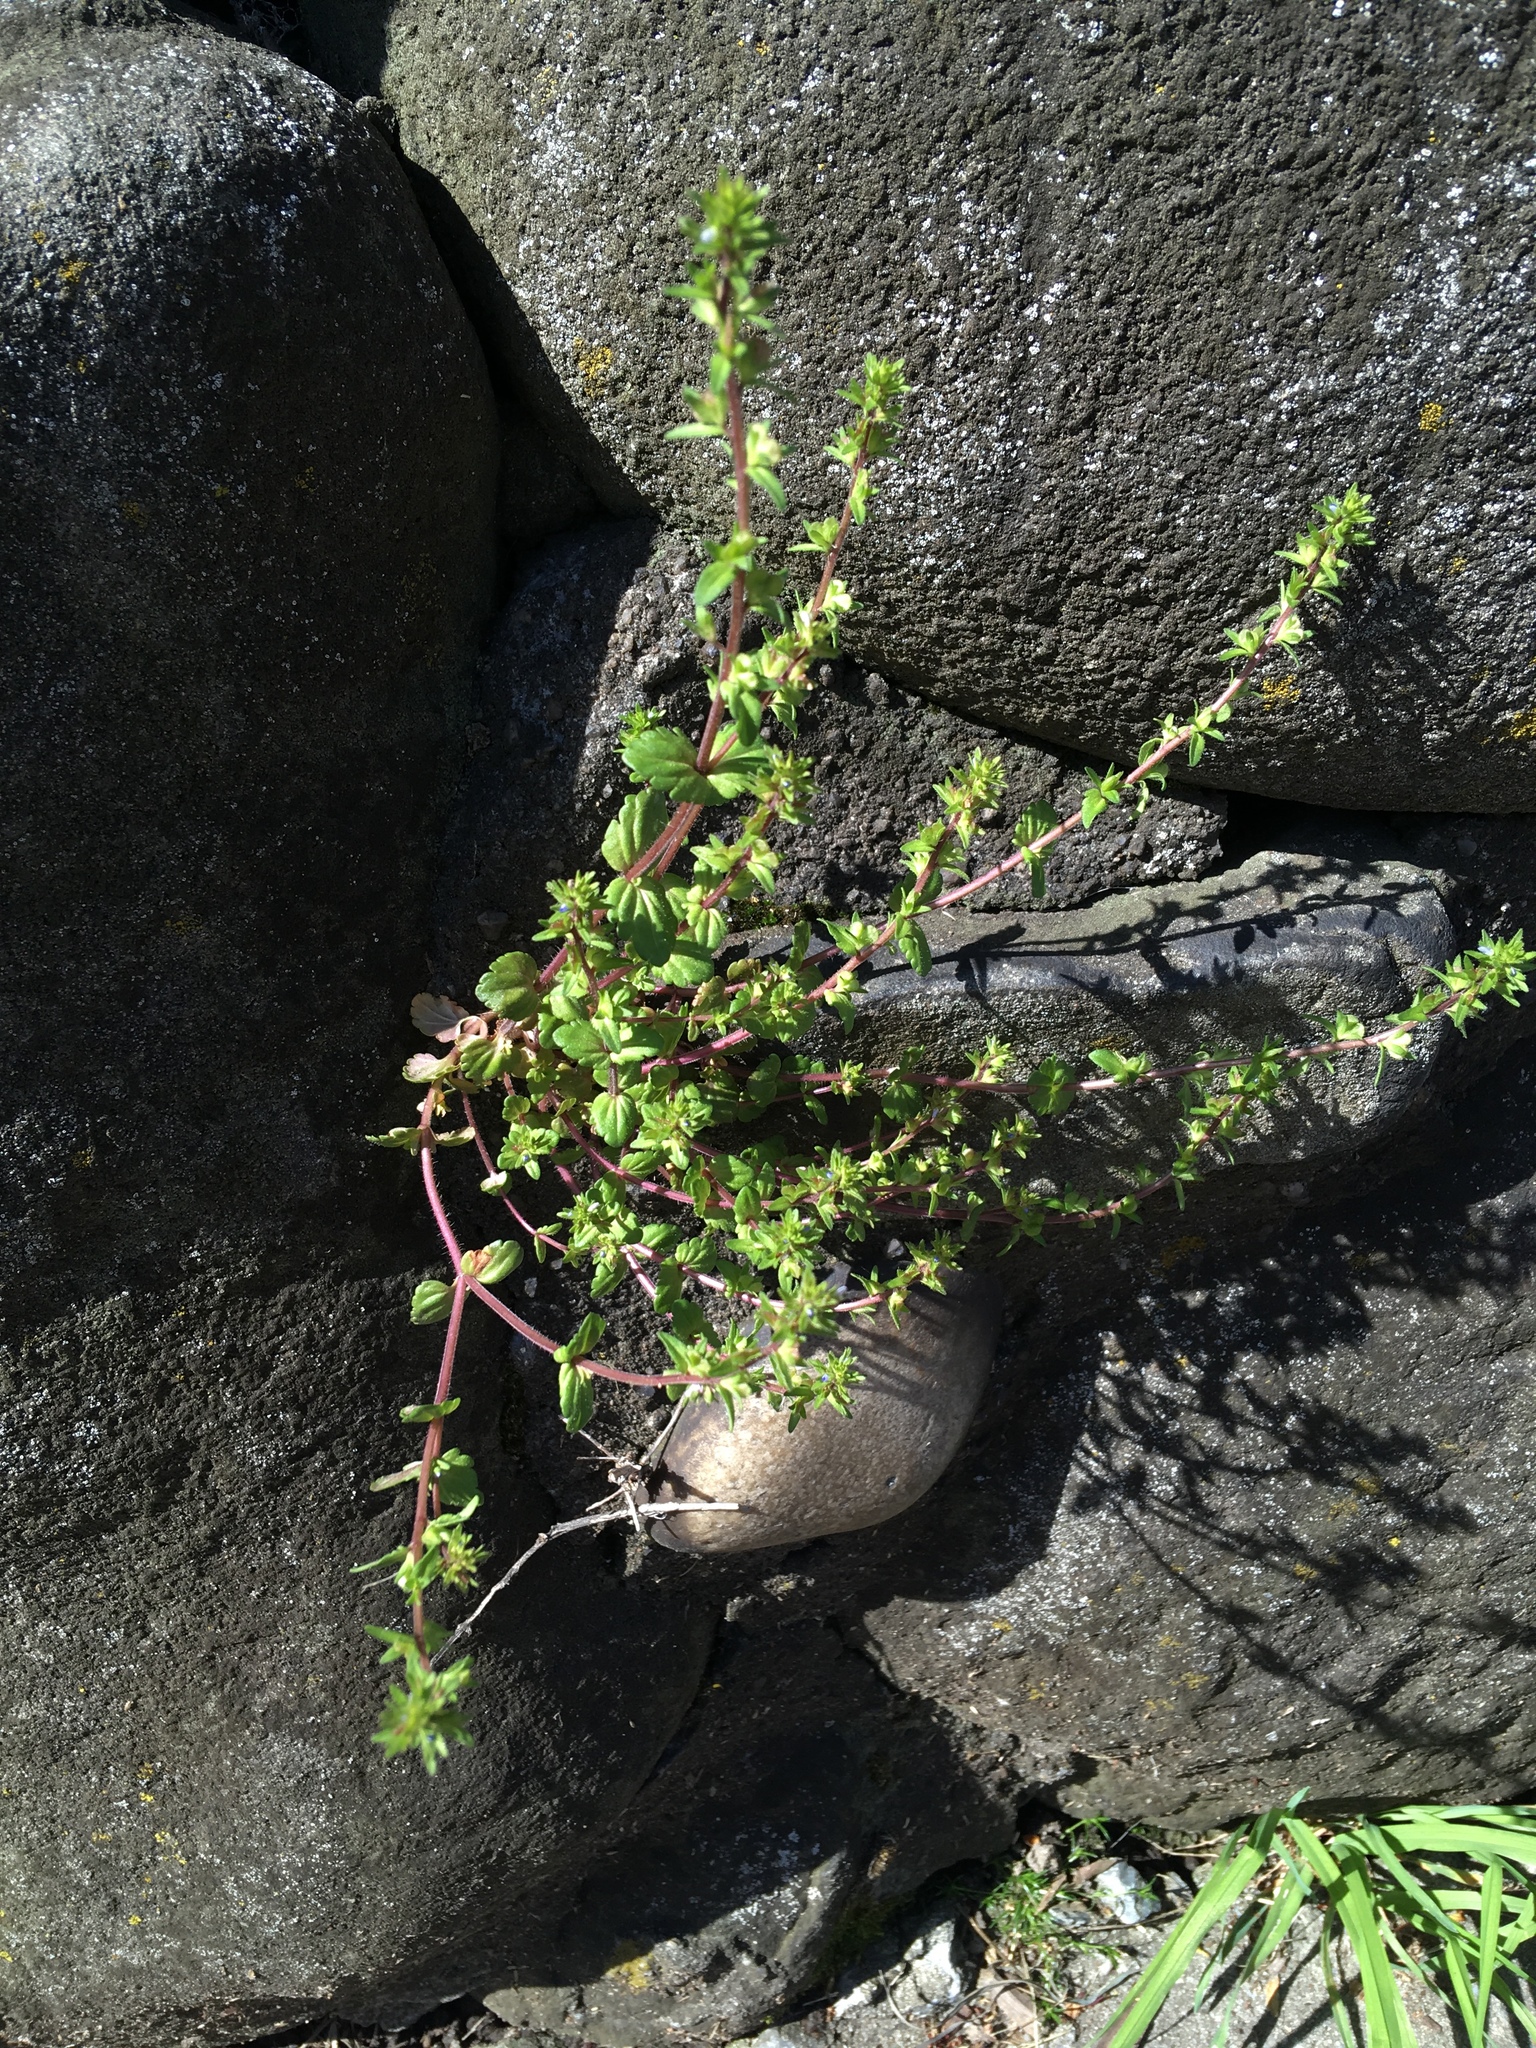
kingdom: Plantae
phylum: Tracheophyta
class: Magnoliopsida
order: Lamiales
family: Plantaginaceae
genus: Veronica
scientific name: Veronica arvensis
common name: Corn speedwell
